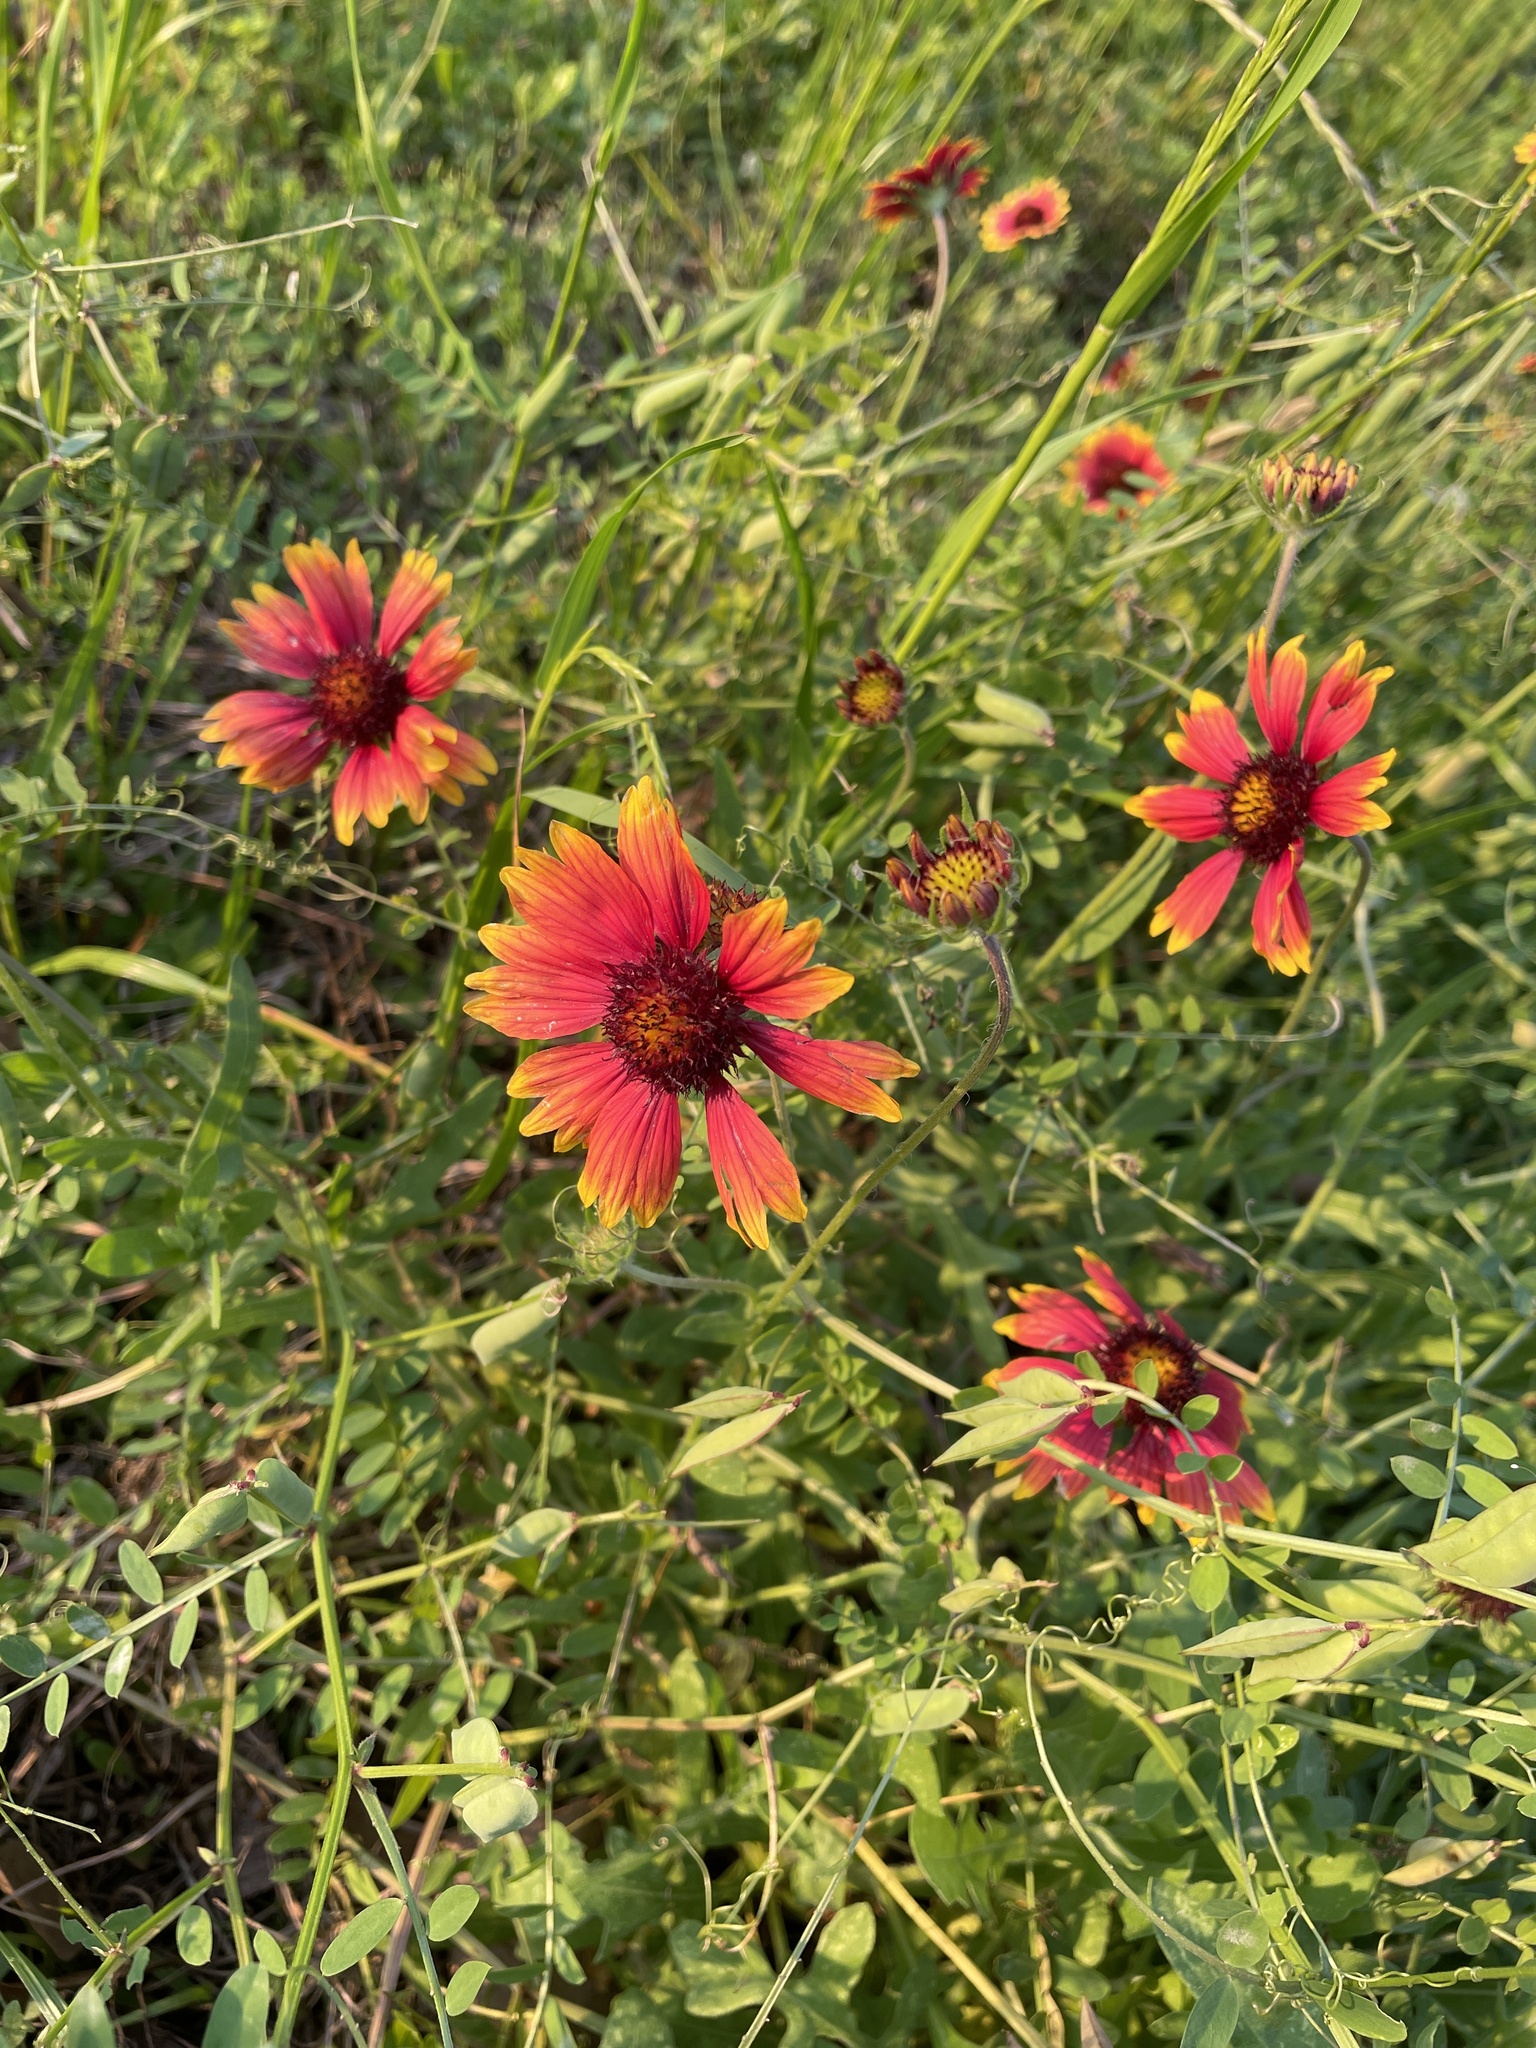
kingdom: Plantae
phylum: Tracheophyta
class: Magnoliopsida
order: Asterales
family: Asteraceae
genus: Gaillardia
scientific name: Gaillardia pulchella
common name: Firewheel
